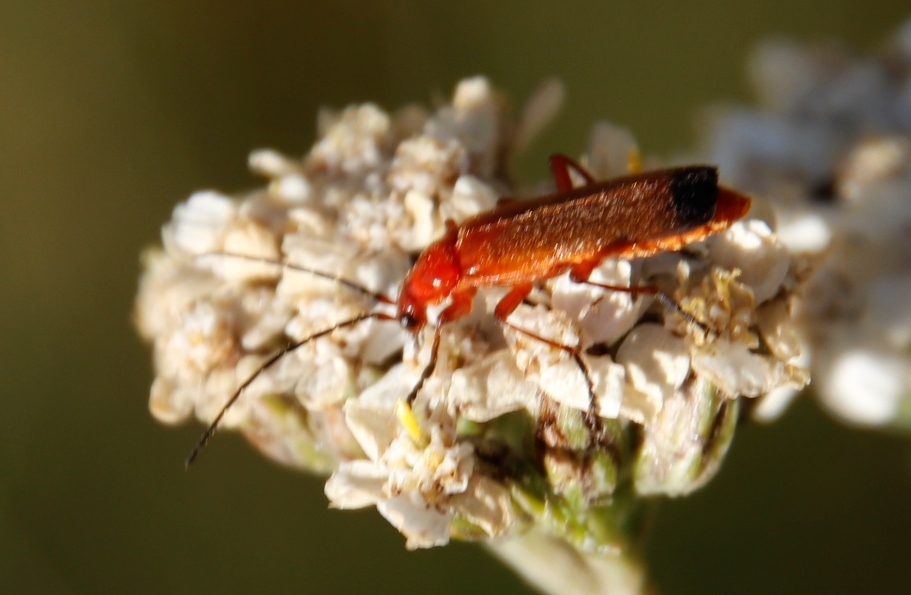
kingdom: Animalia
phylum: Arthropoda
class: Insecta
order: Coleoptera
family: Cantharidae
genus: Rhagonycha
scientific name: Rhagonycha fulva
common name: Common red soldier beetle
